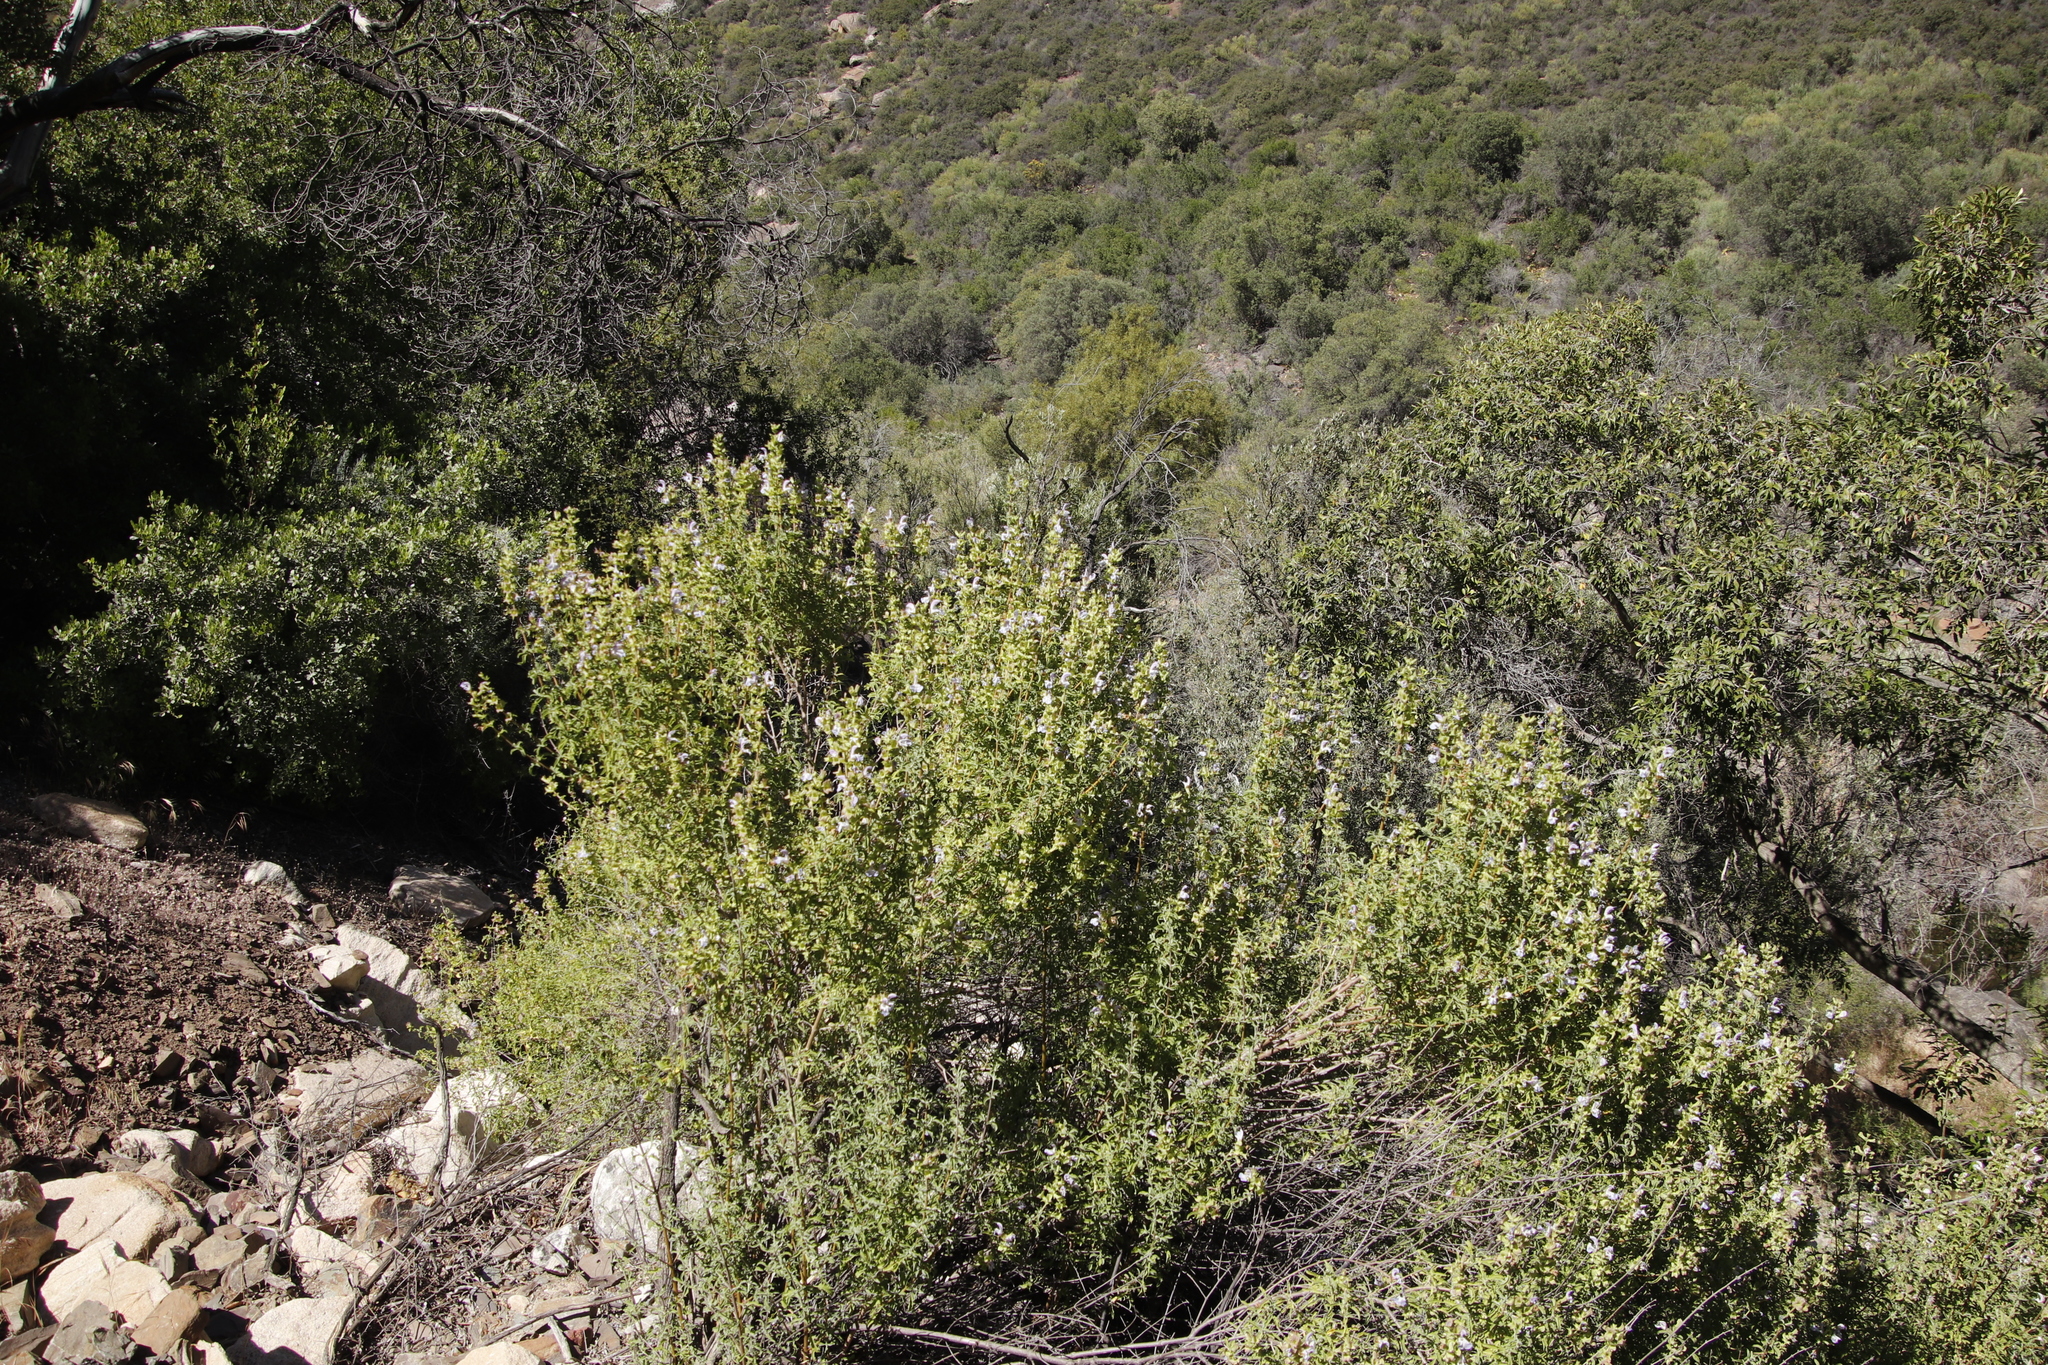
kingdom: Plantae
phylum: Tracheophyta
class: Magnoliopsida
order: Lamiales
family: Lamiaceae
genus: Salvia
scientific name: Salvia dentata
